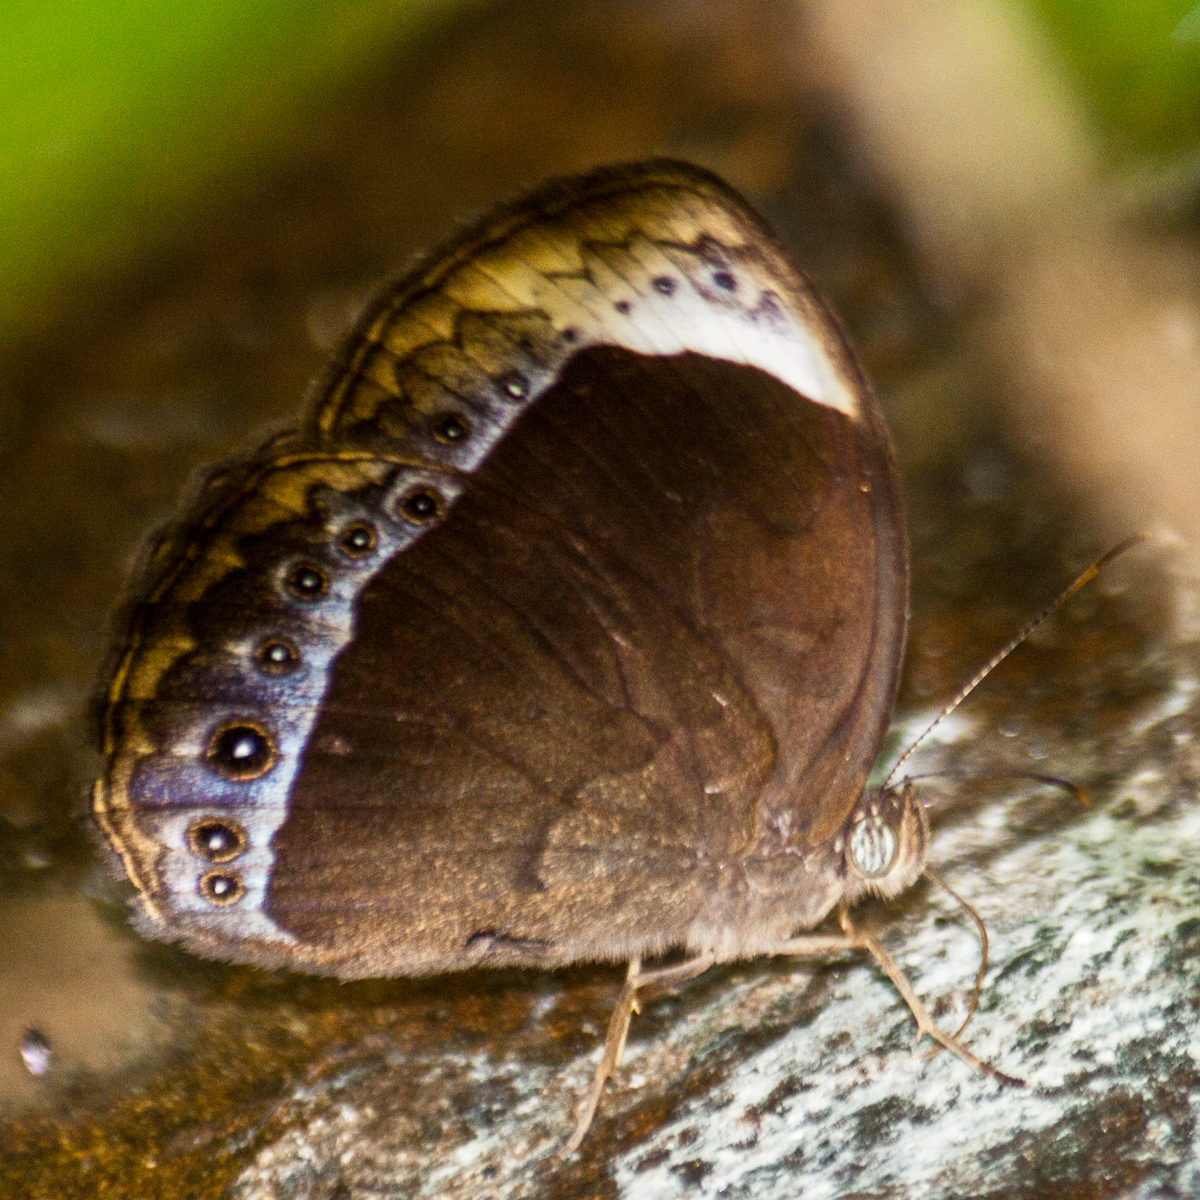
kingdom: Animalia
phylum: Arthropoda
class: Insecta
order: Lepidoptera
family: Nymphalidae
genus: Mycalesis
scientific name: Mycalesis anaxioides
